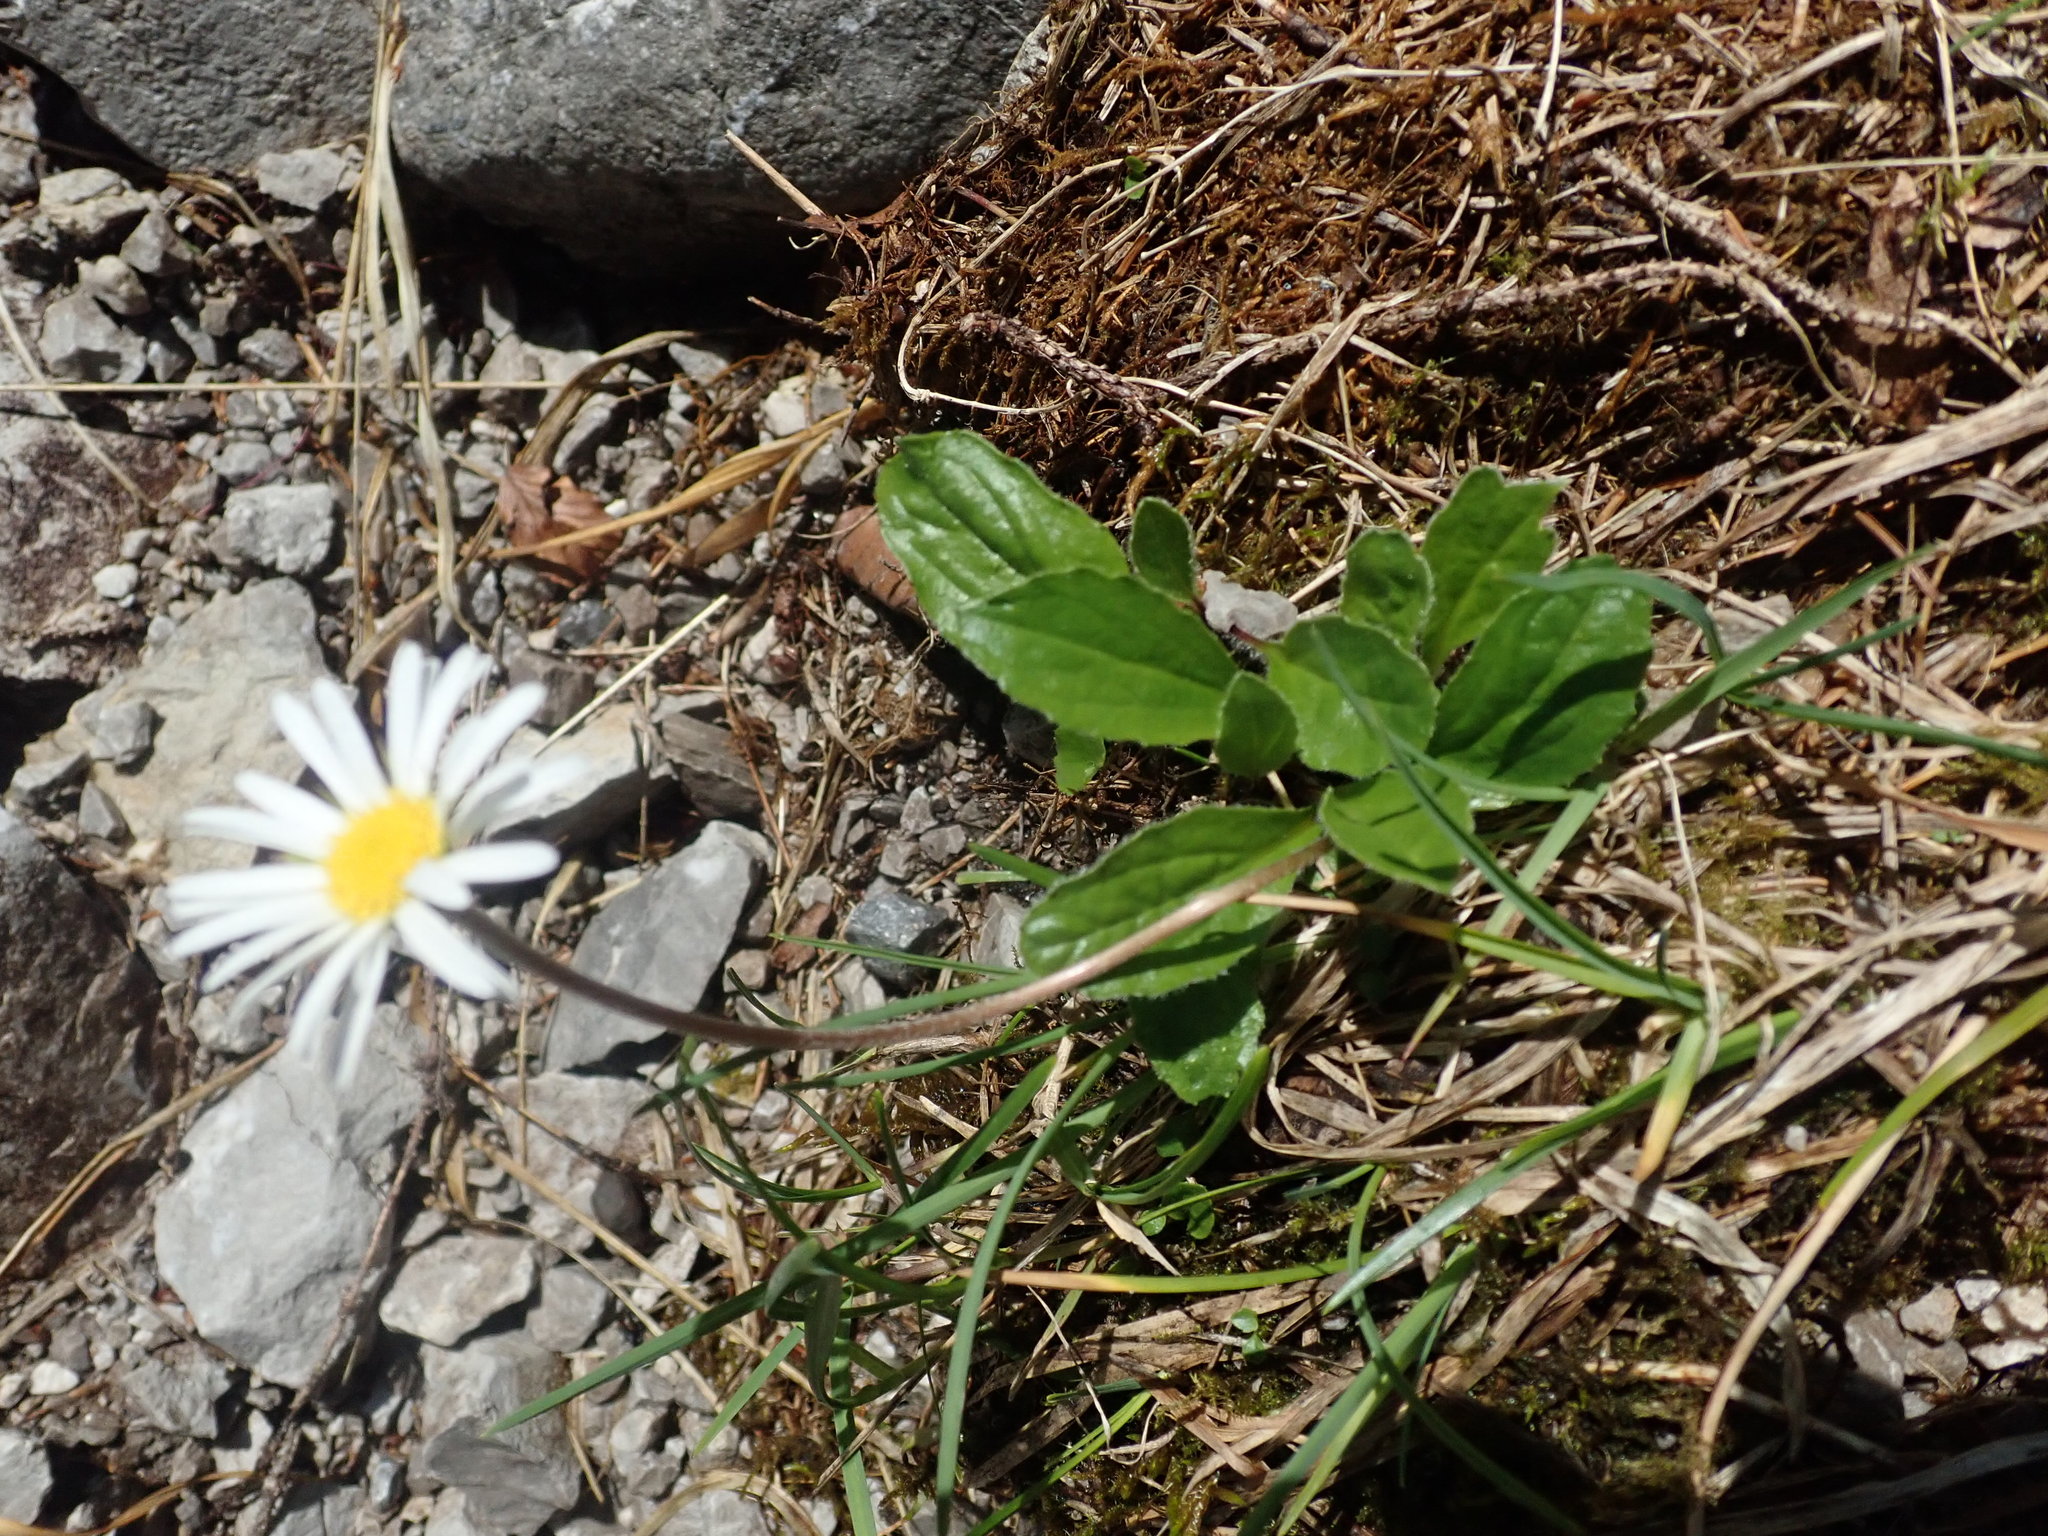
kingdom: Plantae
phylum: Tracheophyta
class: Magnoliopsida
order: Asterales
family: Asteraceae
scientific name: Asteraceae
